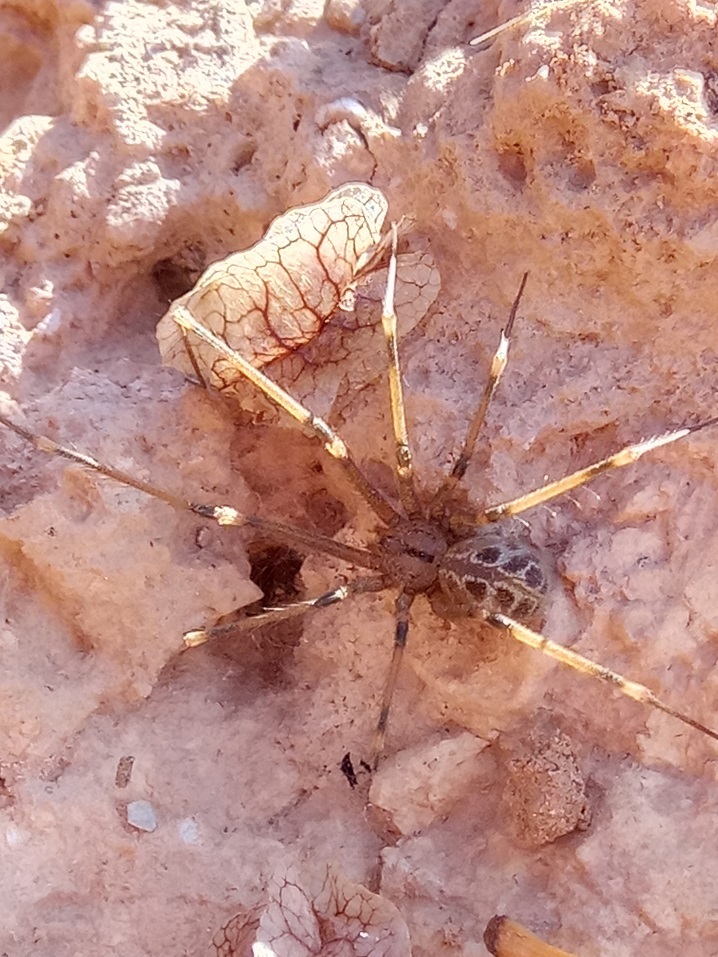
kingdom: Animalia
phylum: Arthropoda
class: Arachnida
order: Araneae
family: Pholcidae
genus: Artema
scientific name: Artema atlanta
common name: Cellar spider
